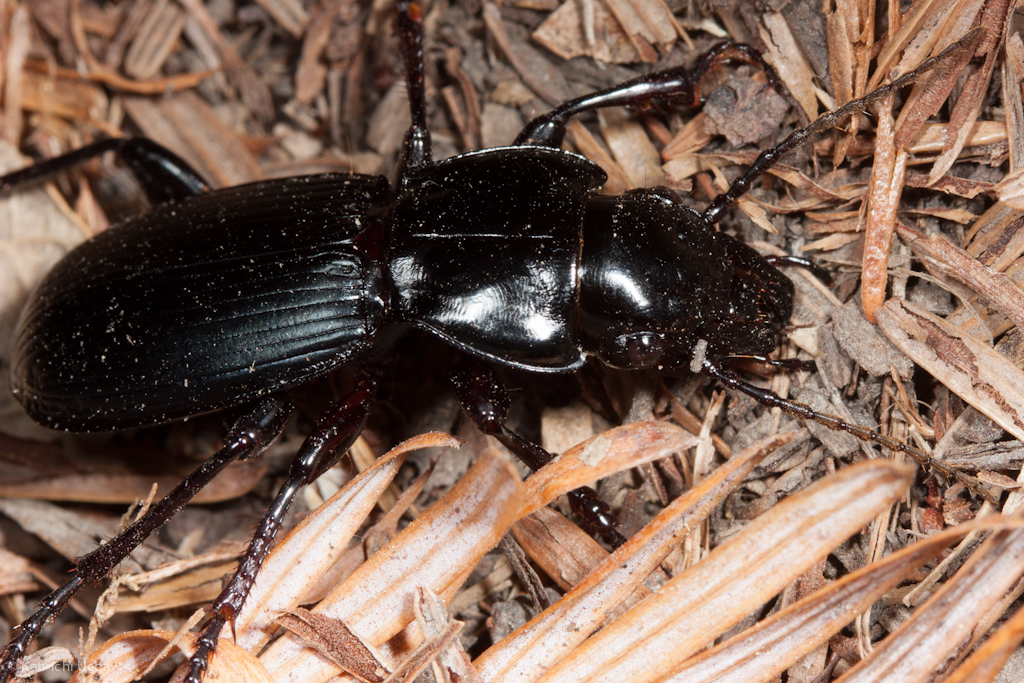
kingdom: Animalia
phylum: Arthropoda
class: Insecta
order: Coleoptera
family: Carabidae
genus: Pterostichus
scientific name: Pterostichus lama
